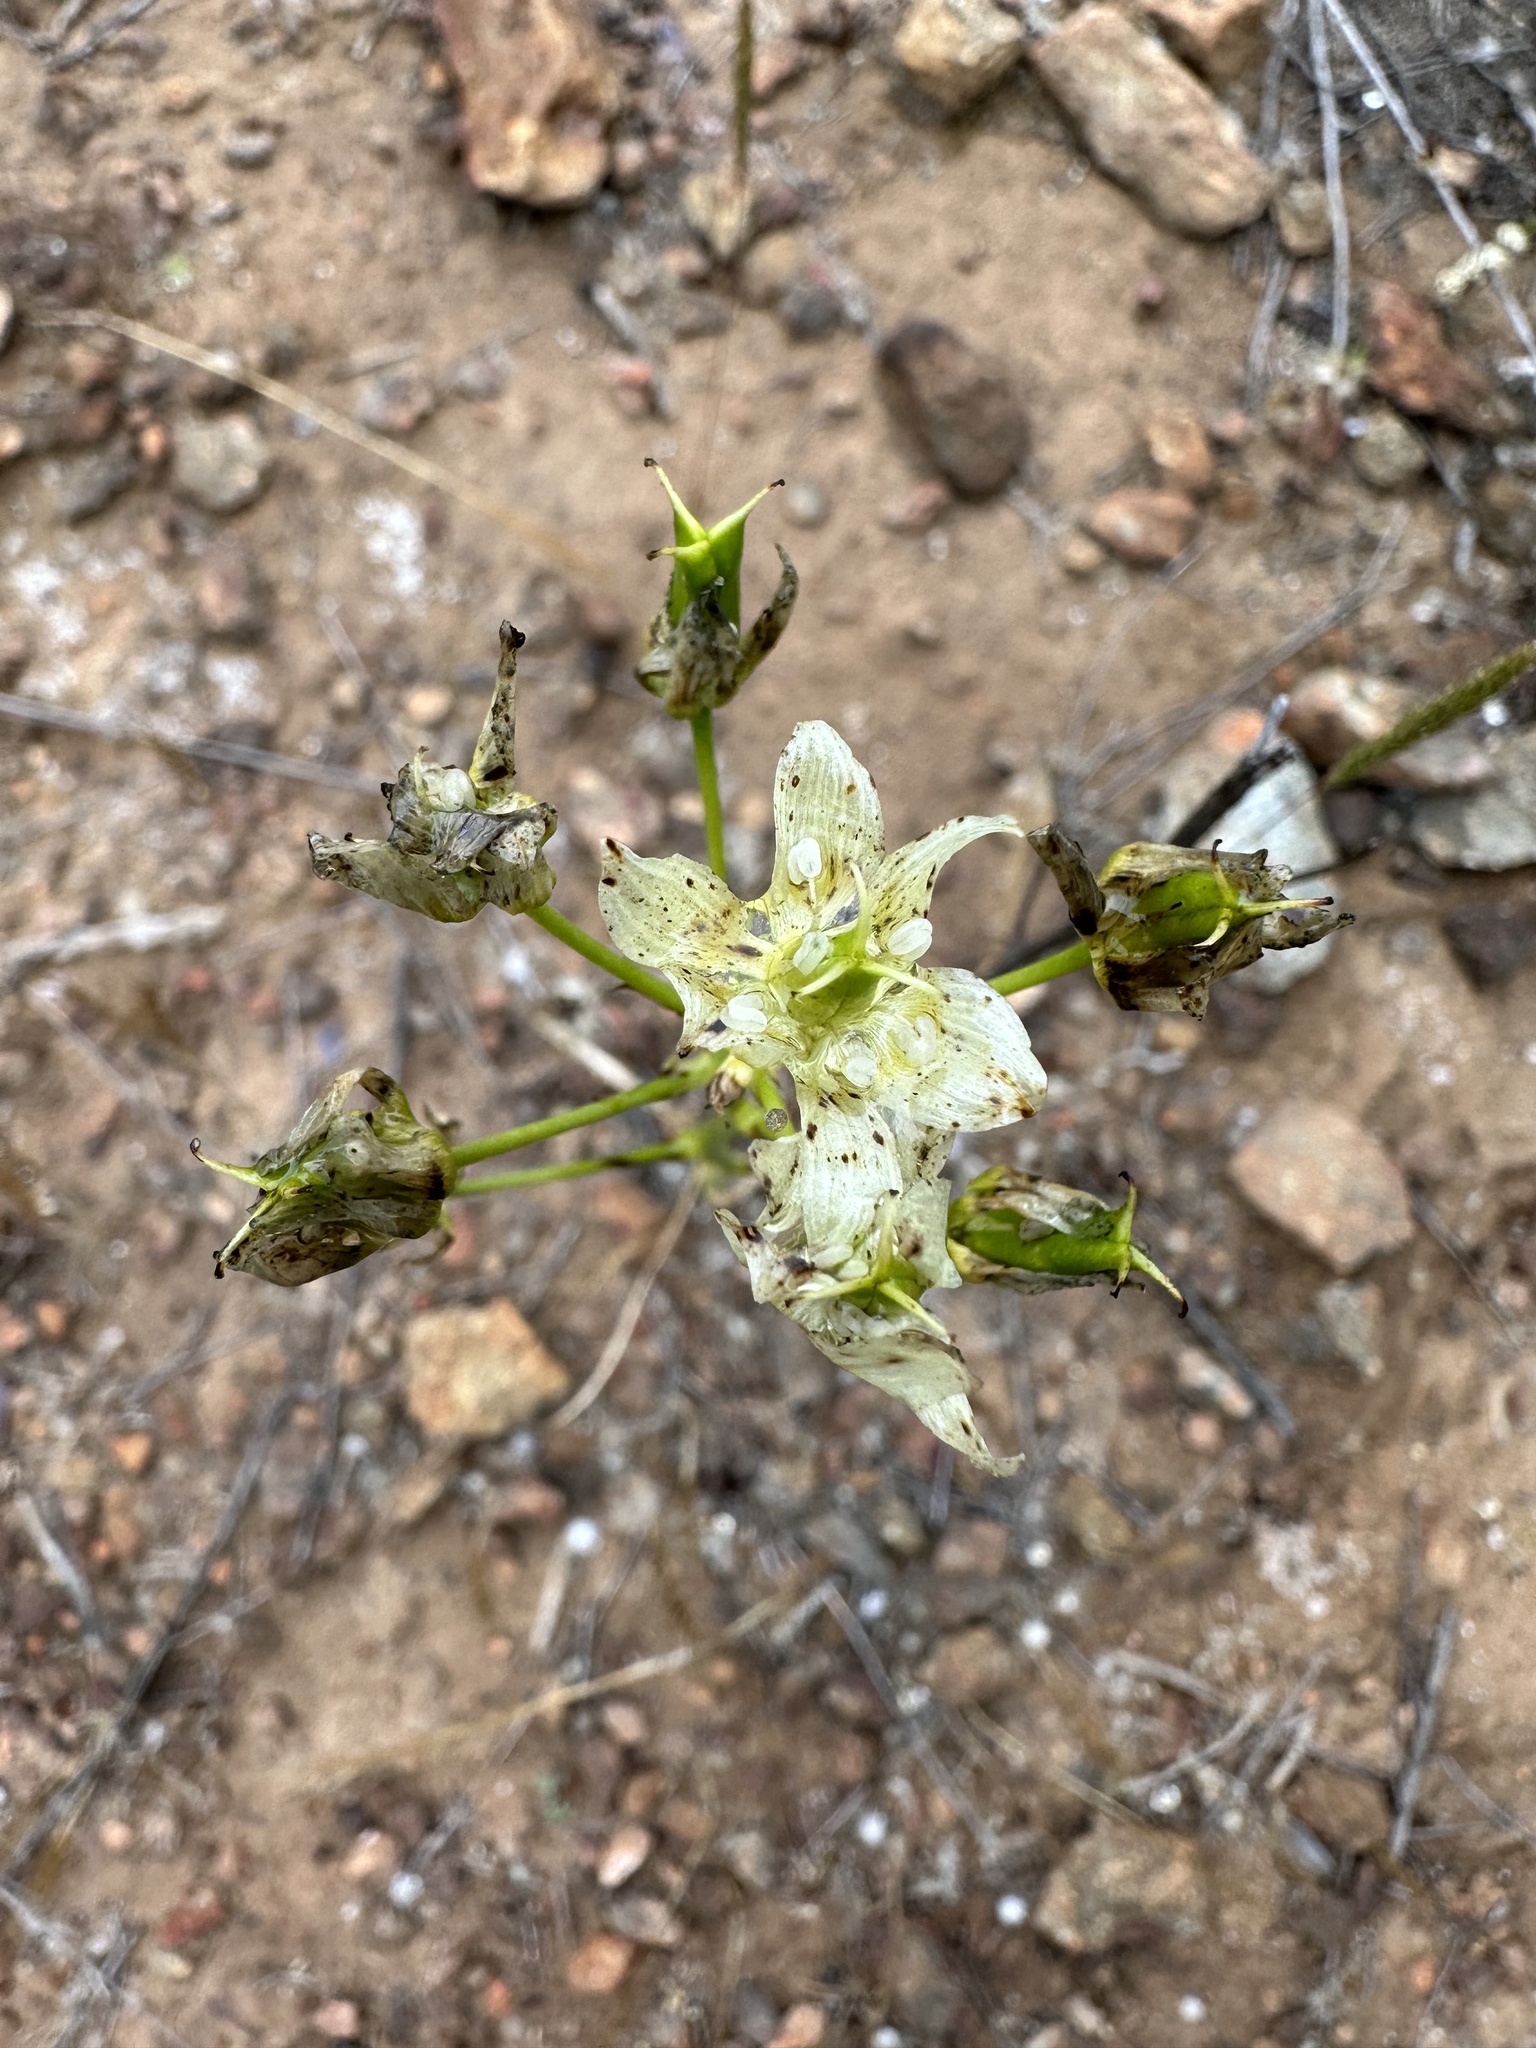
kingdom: Plantae
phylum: Tracheophyta
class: Liliopsida
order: Liliales
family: Melanthiaceae
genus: Toxicoscordion
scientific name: Toxicoscordion fremontii
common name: Fremont's death camas
